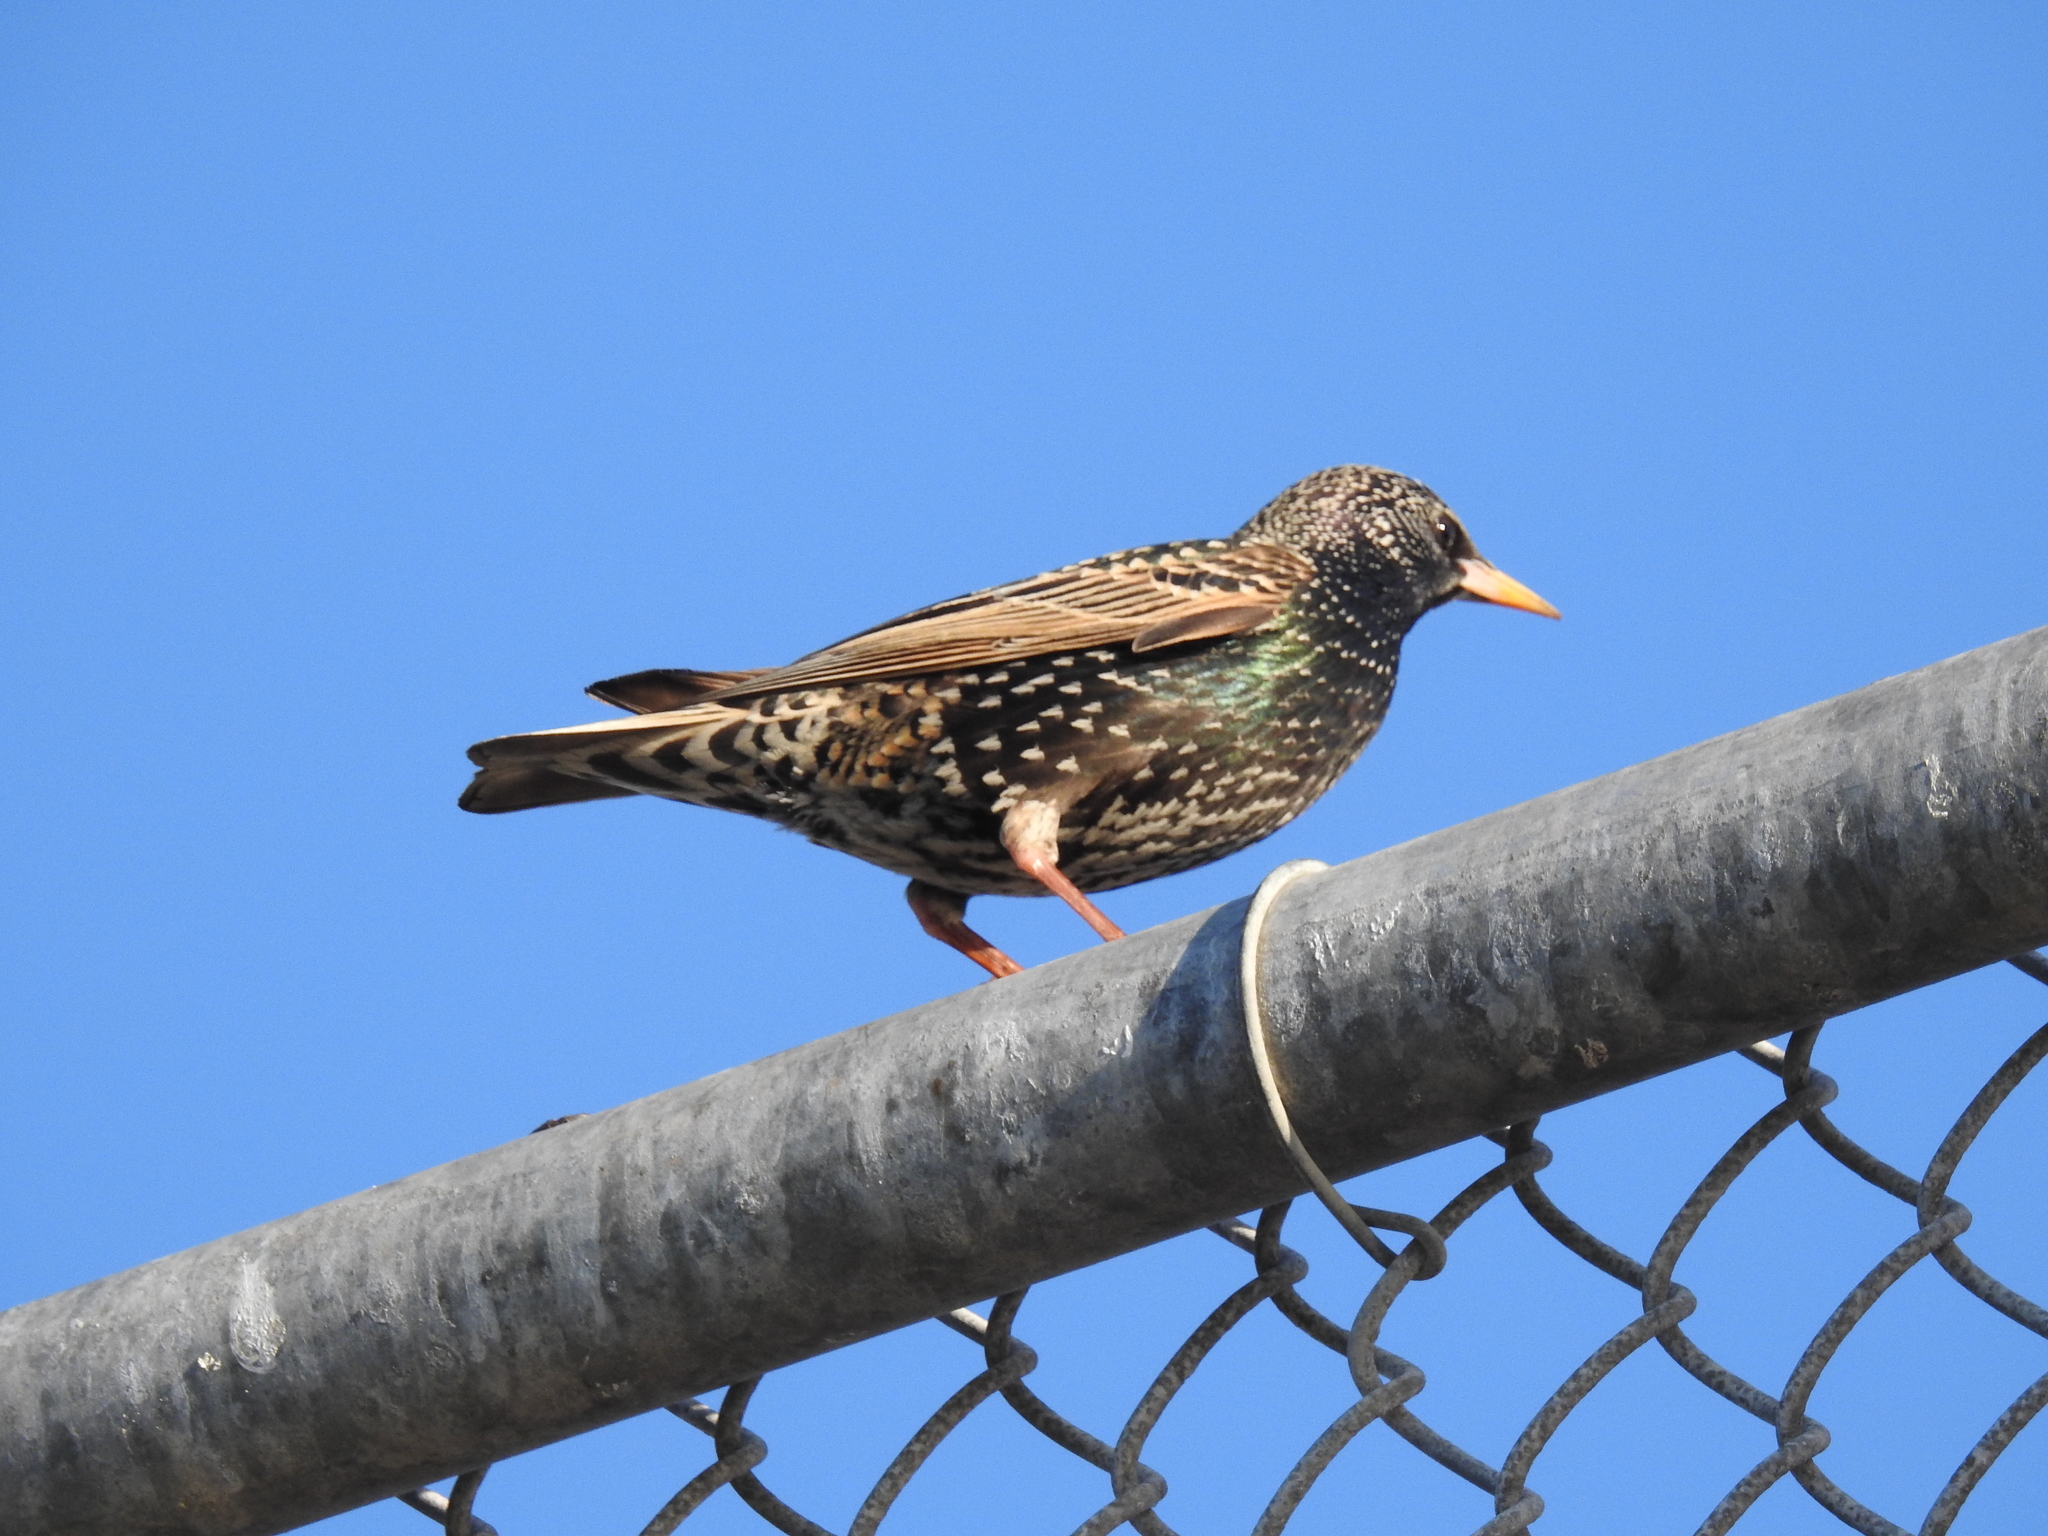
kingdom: Animalia
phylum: Chordata
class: Aves
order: Passeriformes
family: Sturnidae
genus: Sturnus
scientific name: Sturnus vulgaris
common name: Common starling
